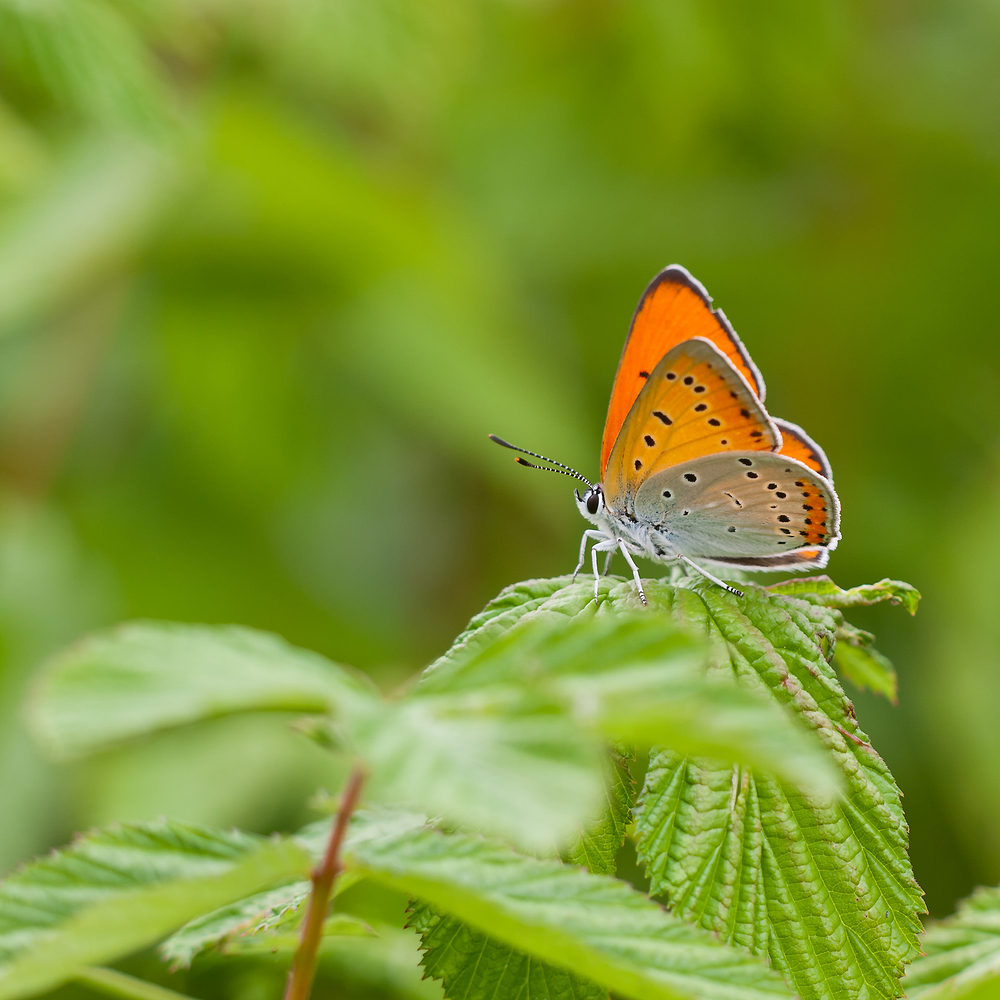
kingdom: Animalia
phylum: Arthropoda
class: Insecta
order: Lepidoptera
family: Lycaenidae
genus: Lycaena
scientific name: Lycaena dispar
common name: Large copper
